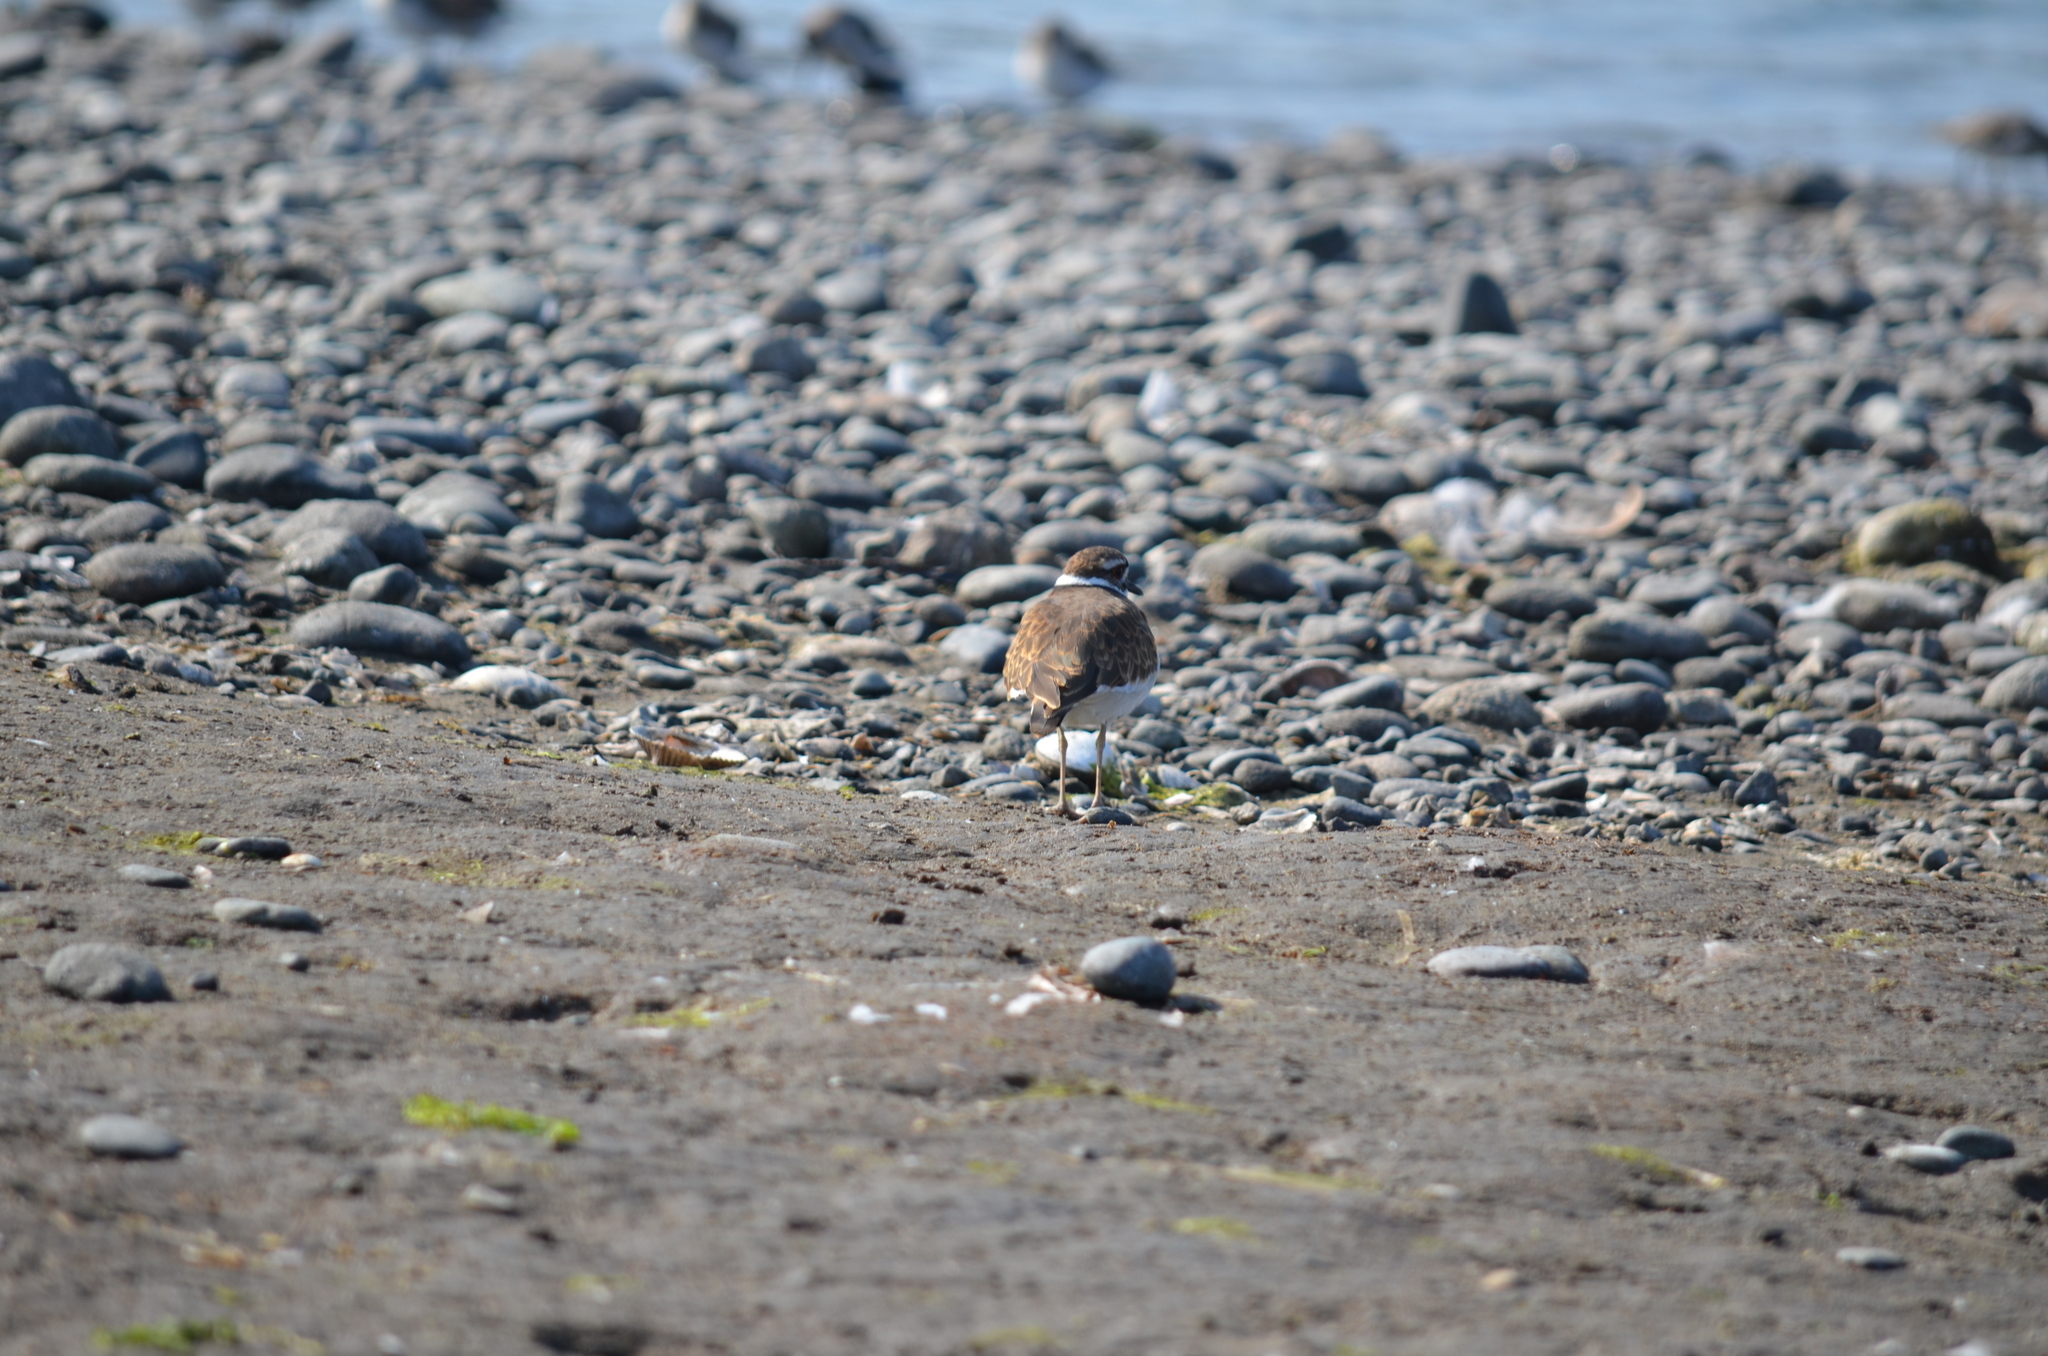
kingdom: Animalia
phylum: Chordata
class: Aves
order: Charadriiformes
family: Charadriidae
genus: Charadrius
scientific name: Charadrius vociferus
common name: Killdeer
